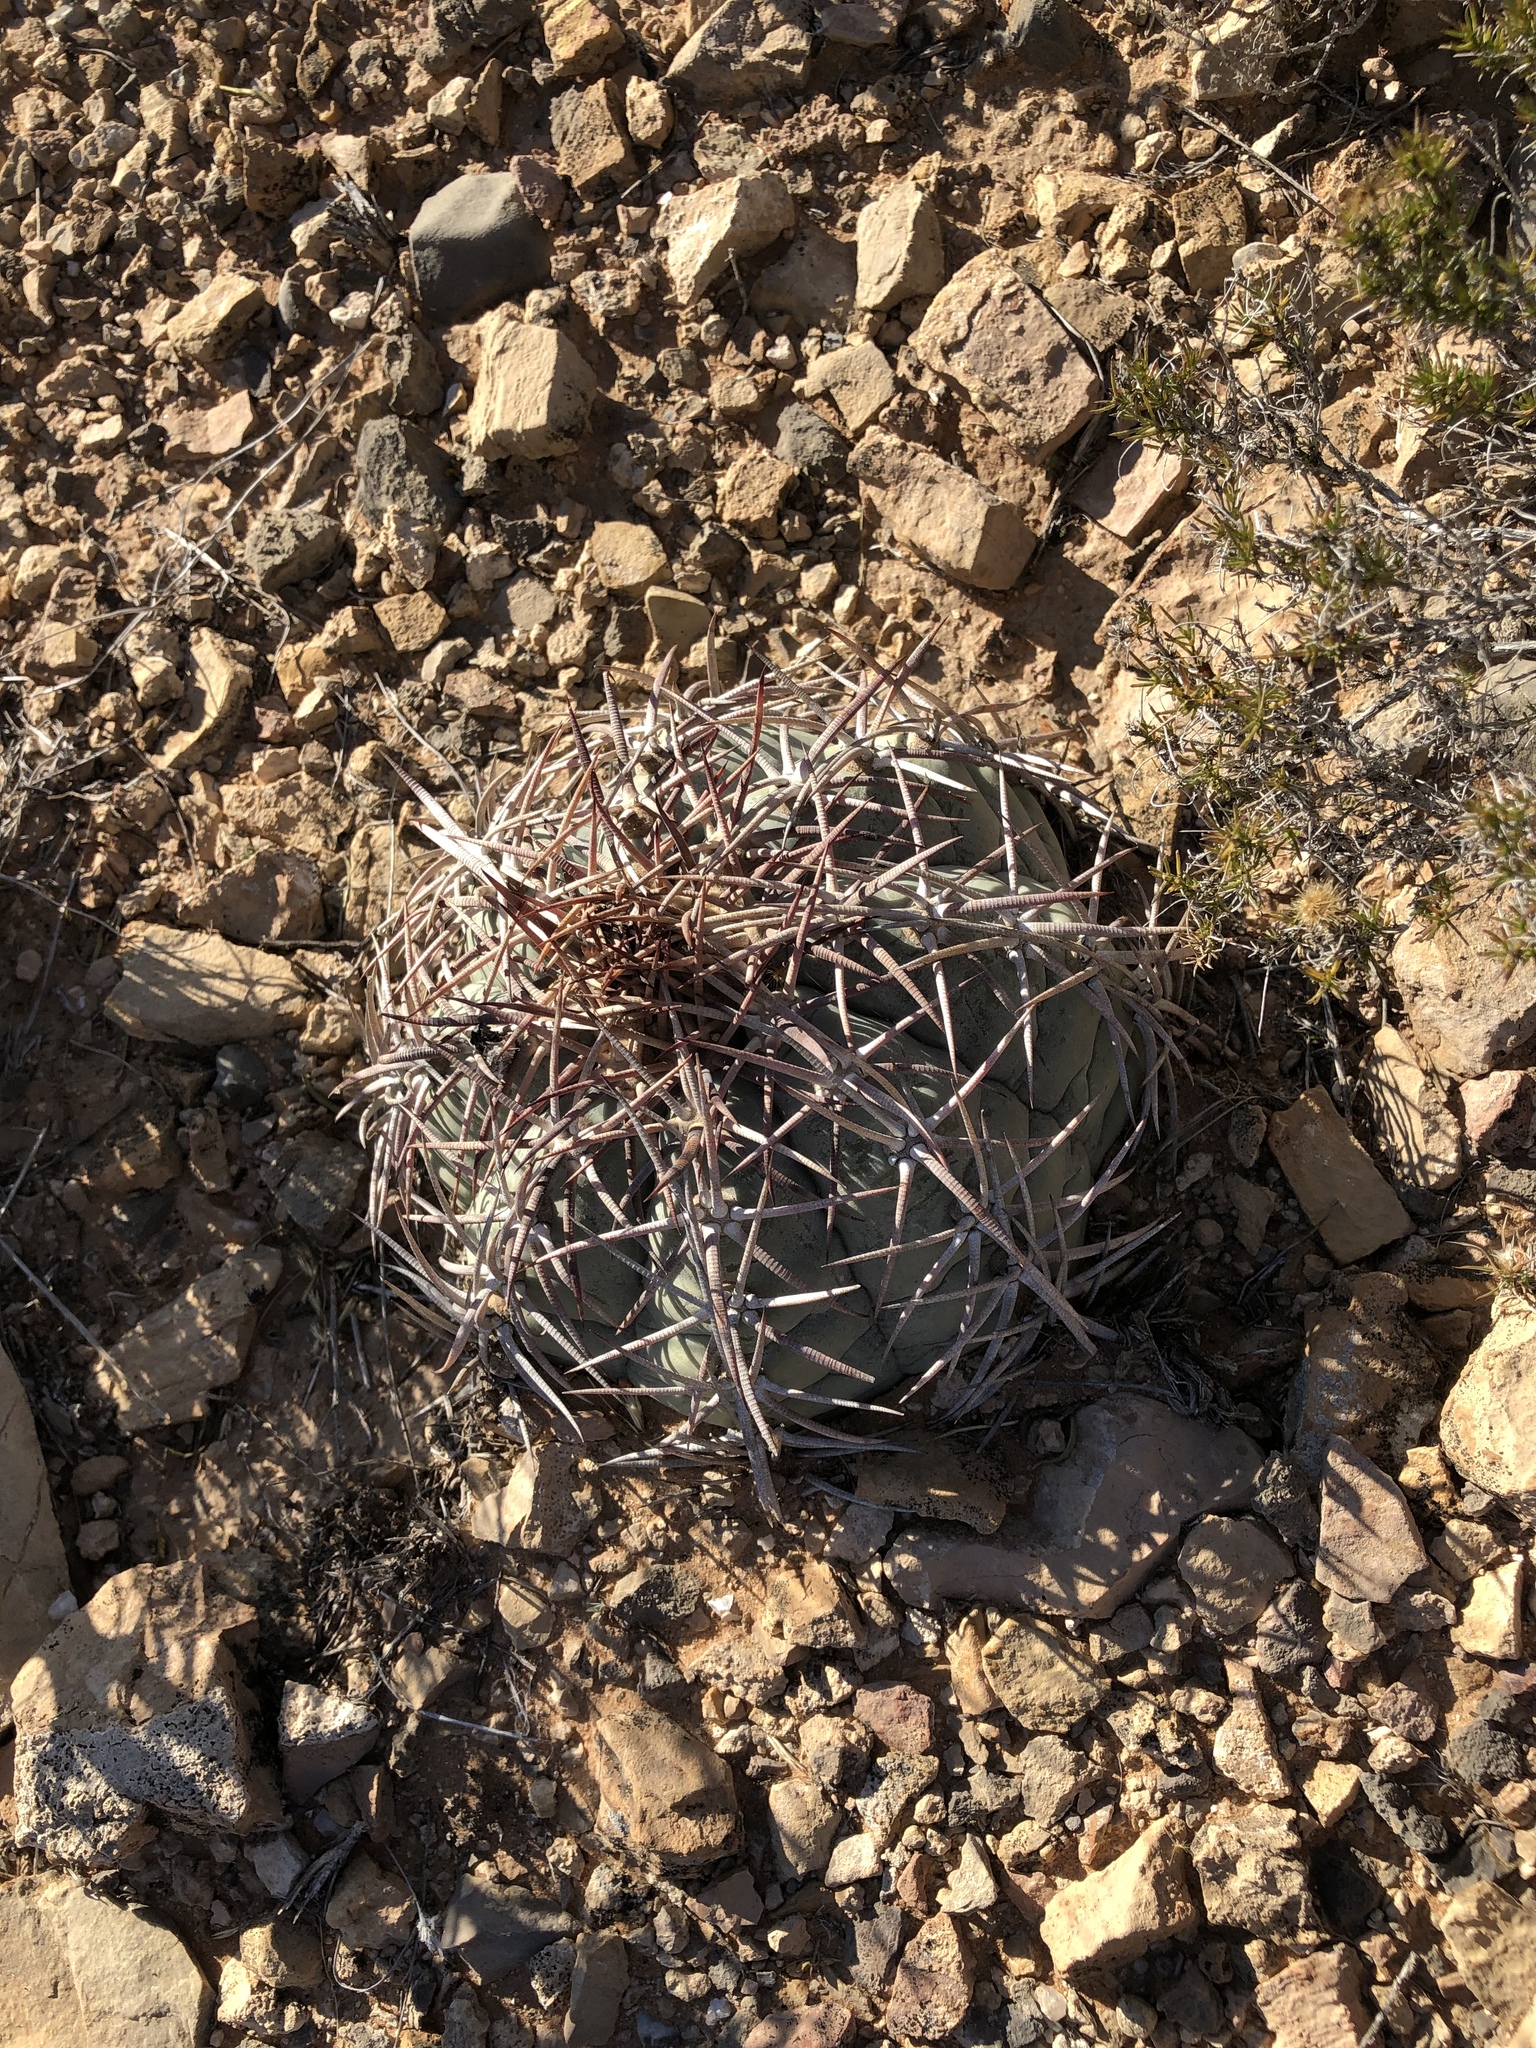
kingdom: Plantae
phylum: Tracheophyta
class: Magnoliopsida
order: Caryophyllales
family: Cactaceae
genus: Echinocactus
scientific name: Echinocactus horizonthalonius
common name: Devilshead
